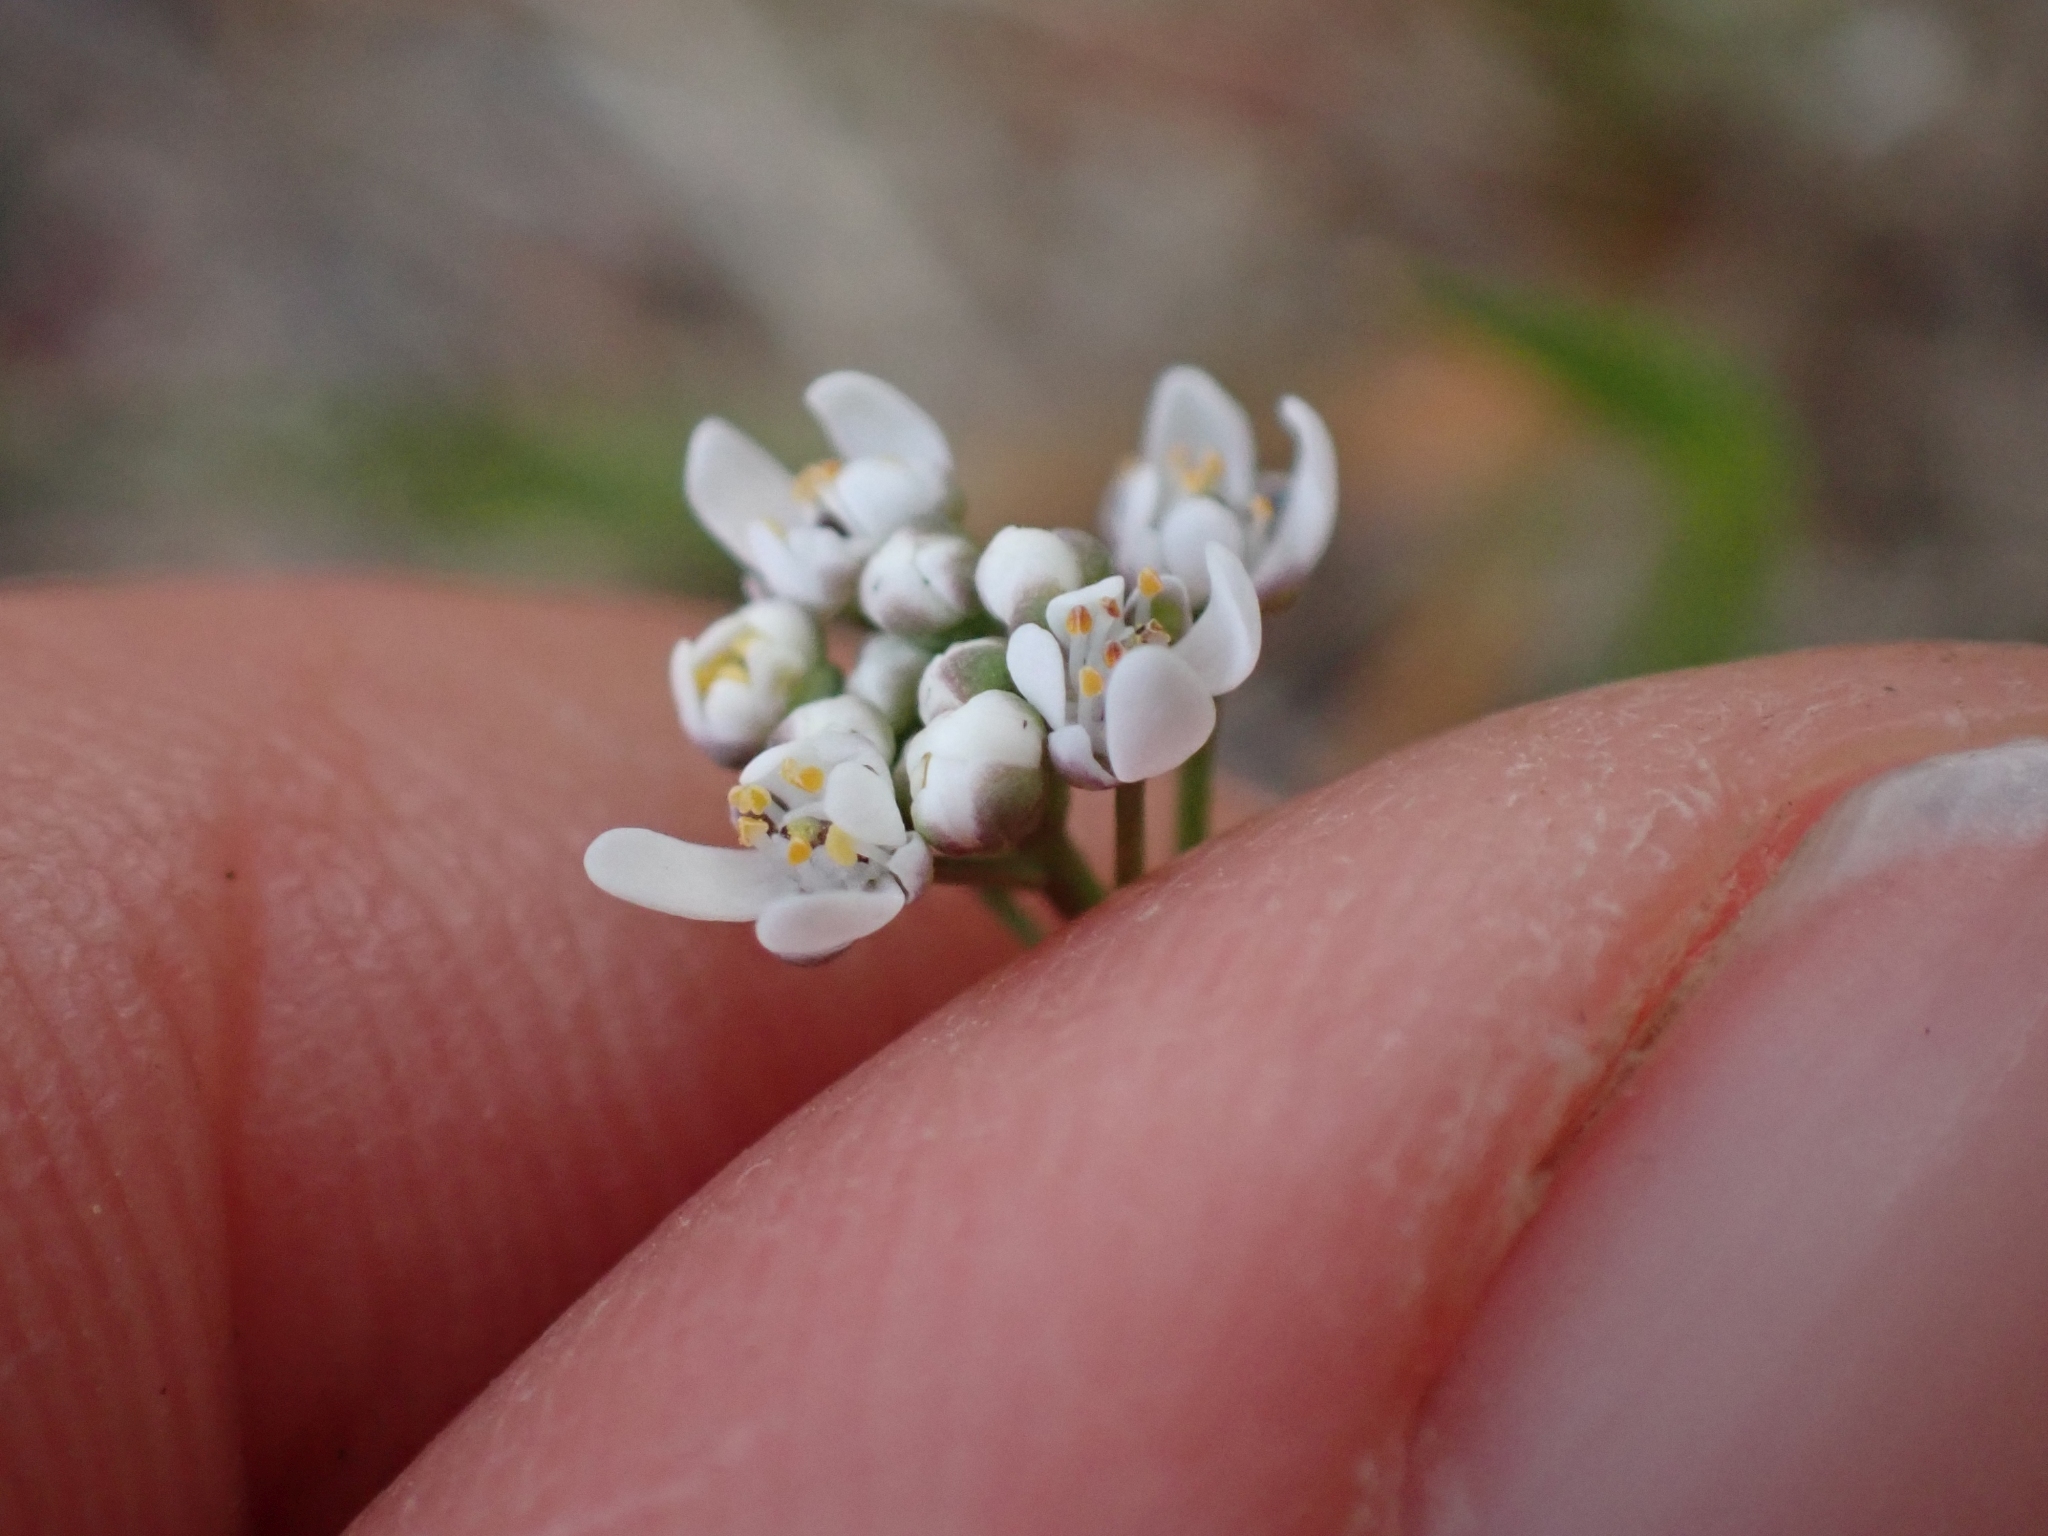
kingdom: Plantae
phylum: Tracheophyta
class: Magnoliopsida
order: Brassicales
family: Brassicaceae
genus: Teesdalia
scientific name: Teesdalia nudicaulis
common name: Shepherd's cress
